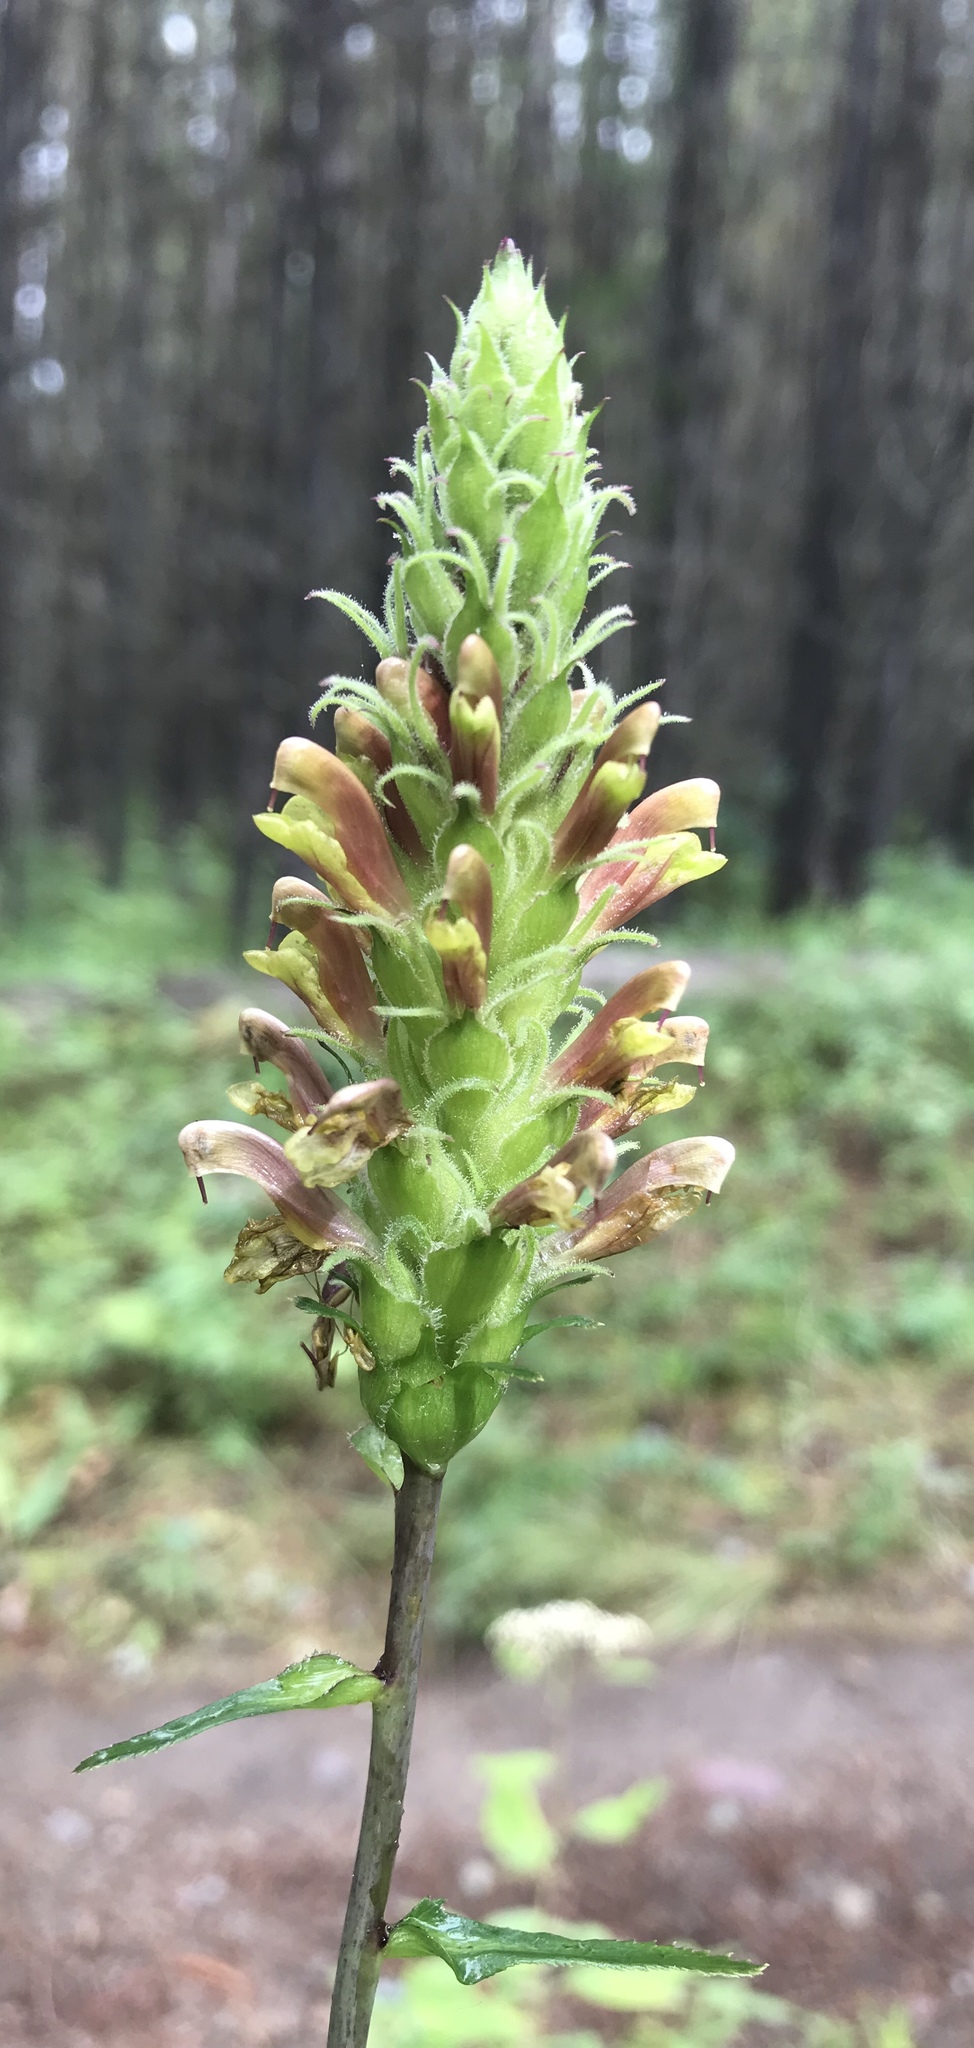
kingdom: Plantae
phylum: Tracheophyta
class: Magnoliopsida
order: Lamiales
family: Orobanchaceae
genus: Pedicularis
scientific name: Pedicularis bracteosa
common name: Bracted lousewort
